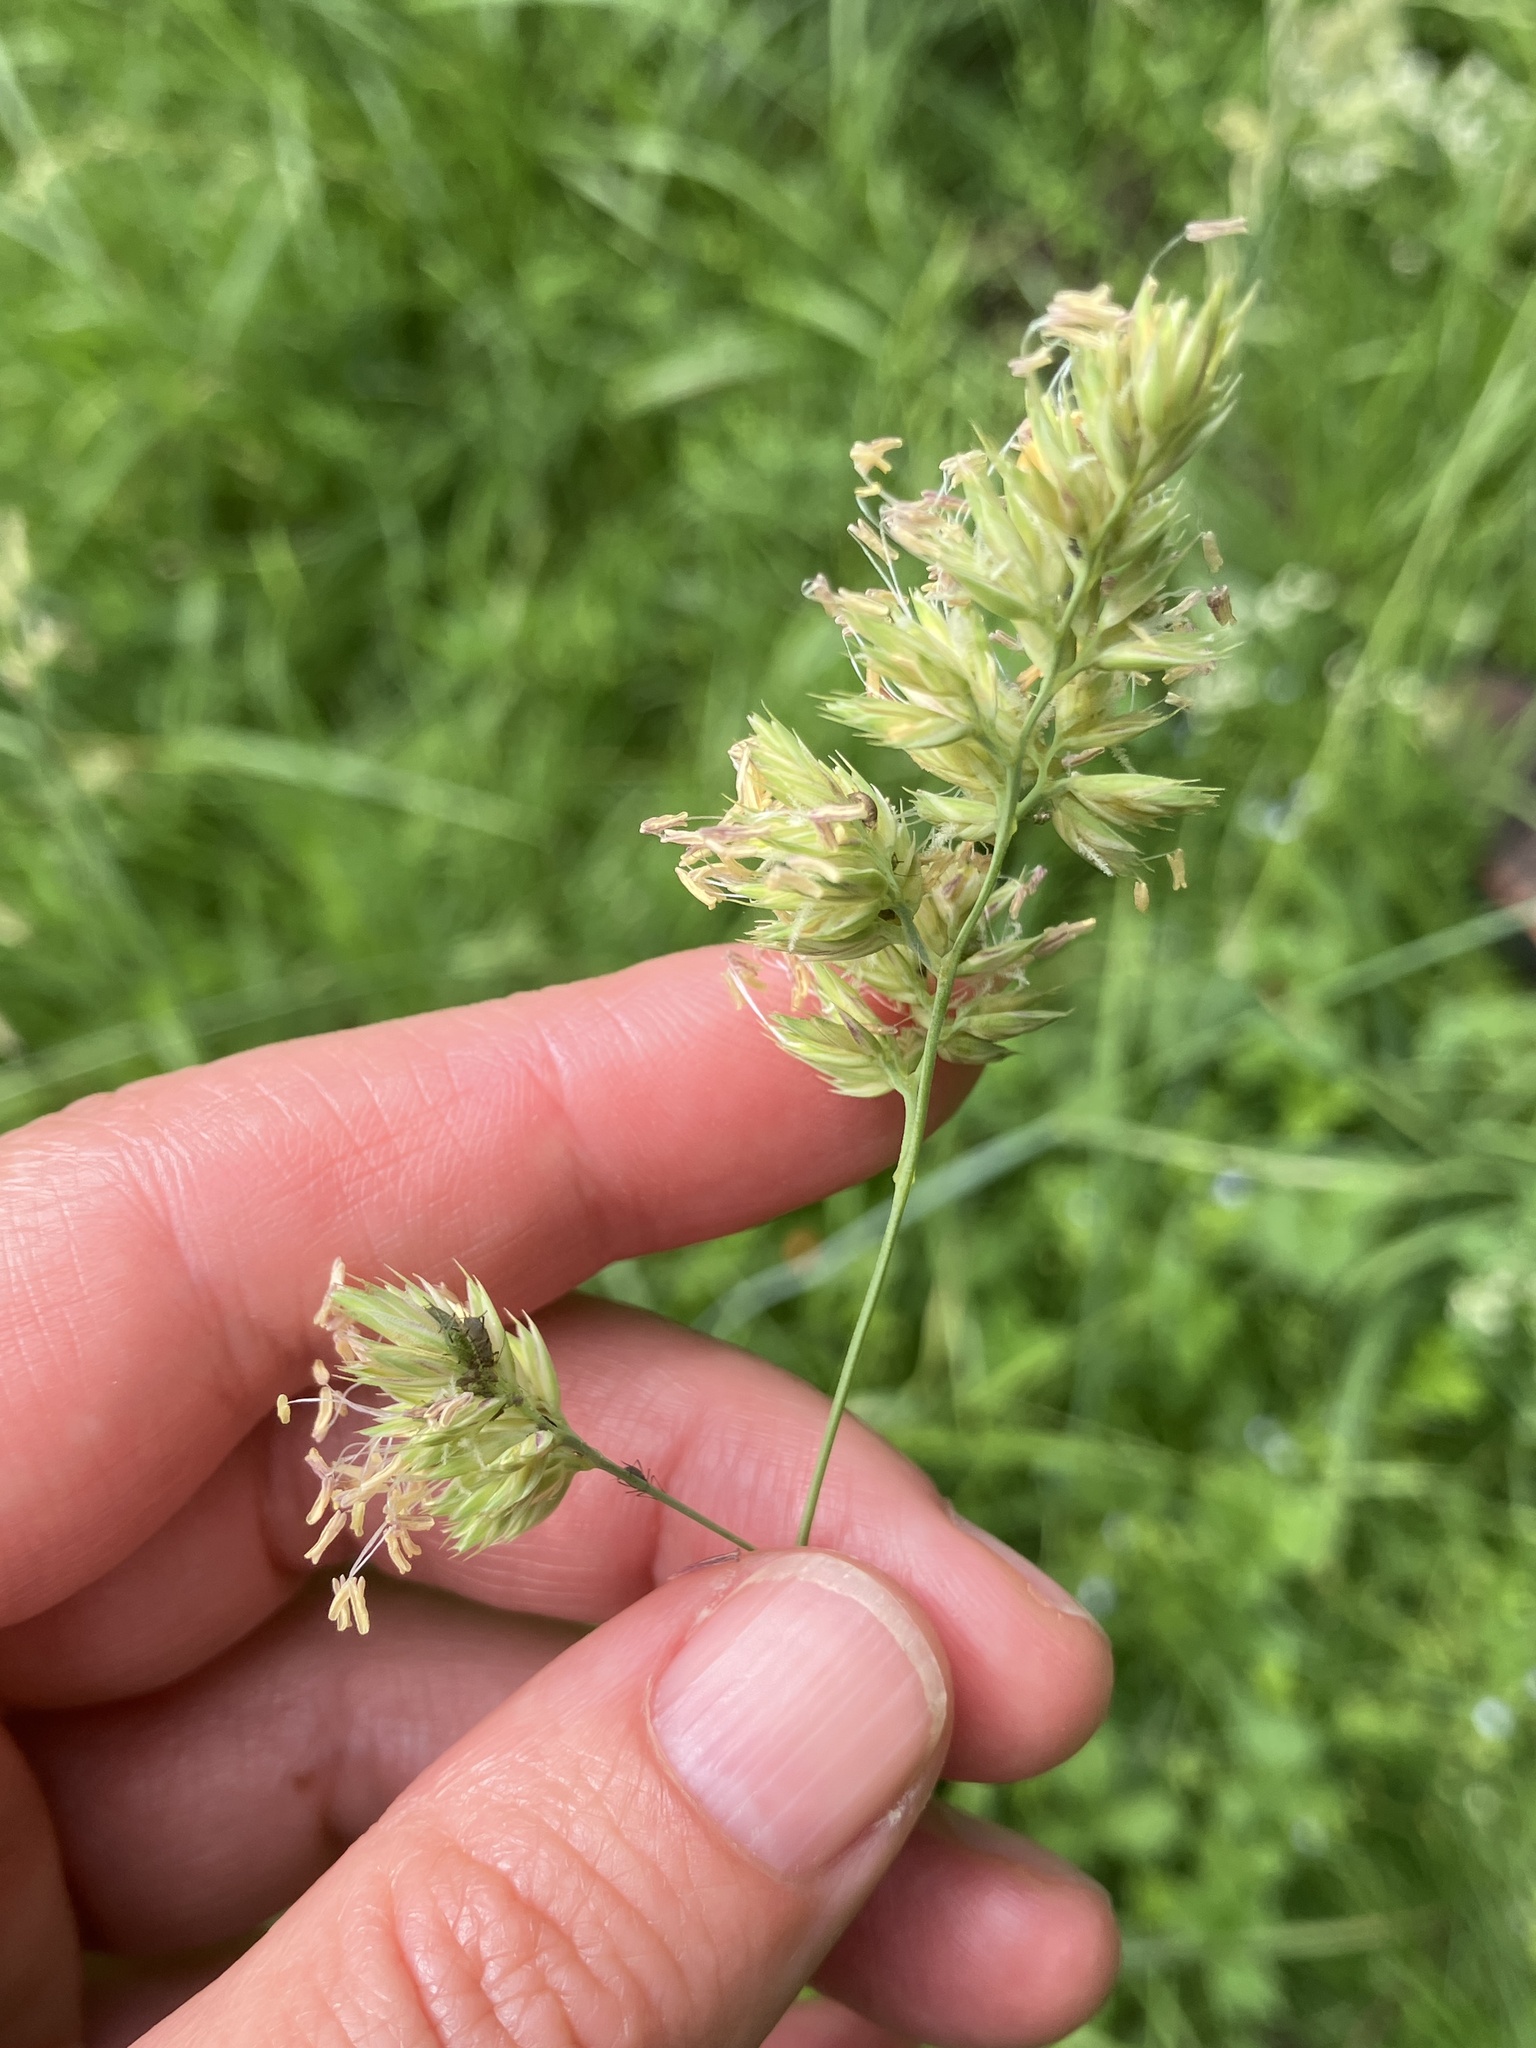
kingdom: Plantae
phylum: Tracheophyta
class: Liliopsida
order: Poales
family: Poaceae
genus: Dactylis
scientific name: Dactylis glomerata
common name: Orchardgrass
